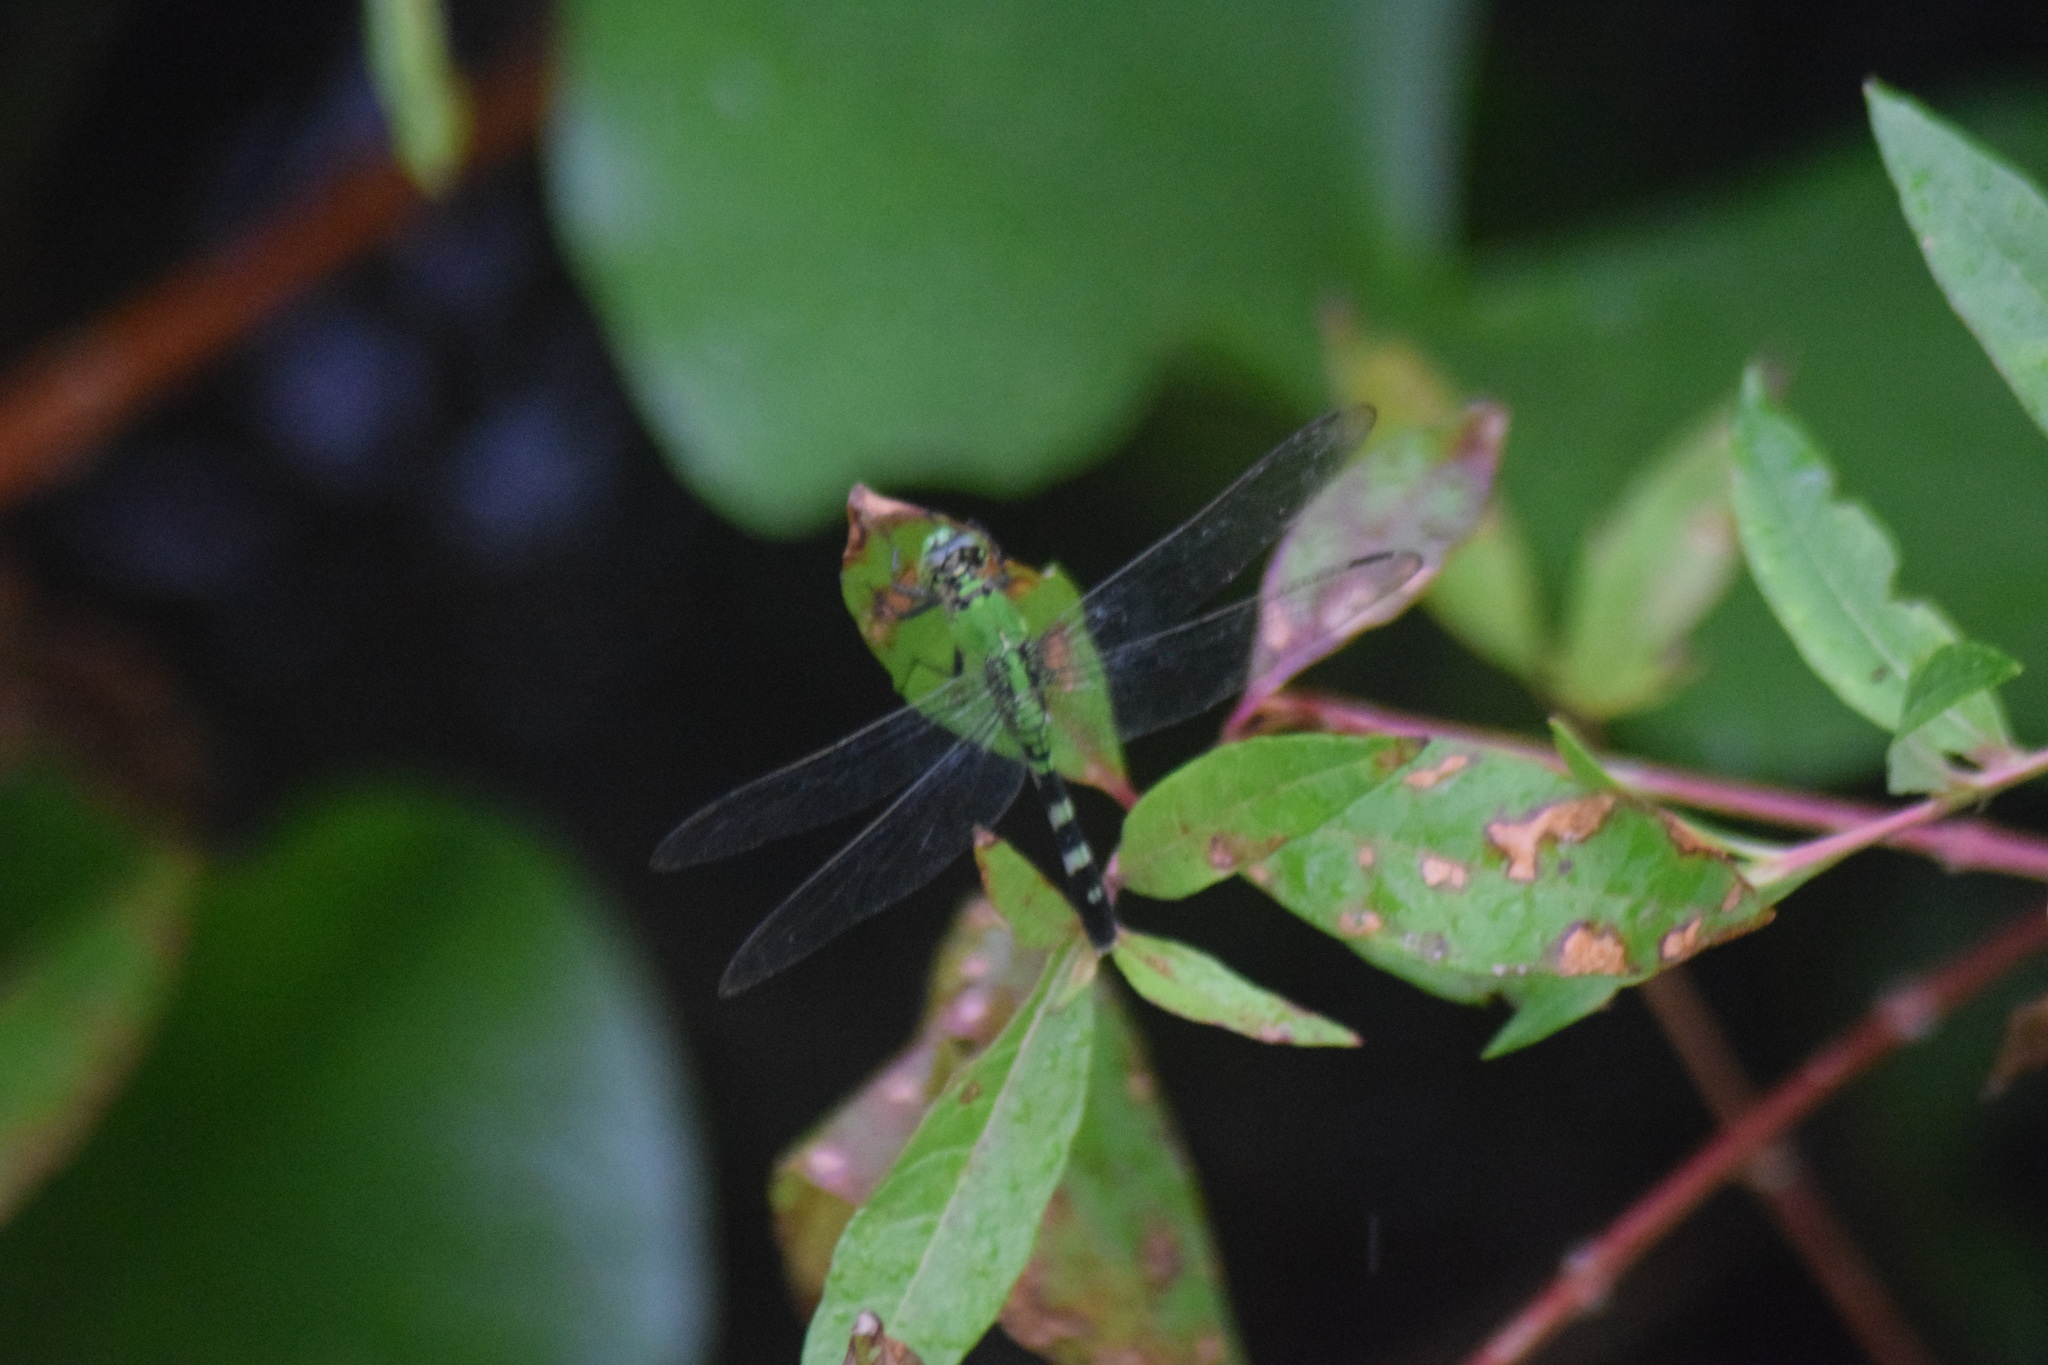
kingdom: Animalia
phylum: Arthropoda
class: Insecta
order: Odonata
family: Libellulidae
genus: Erythemis
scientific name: Erythemis simplicicollis
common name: Eastern pondhawk
